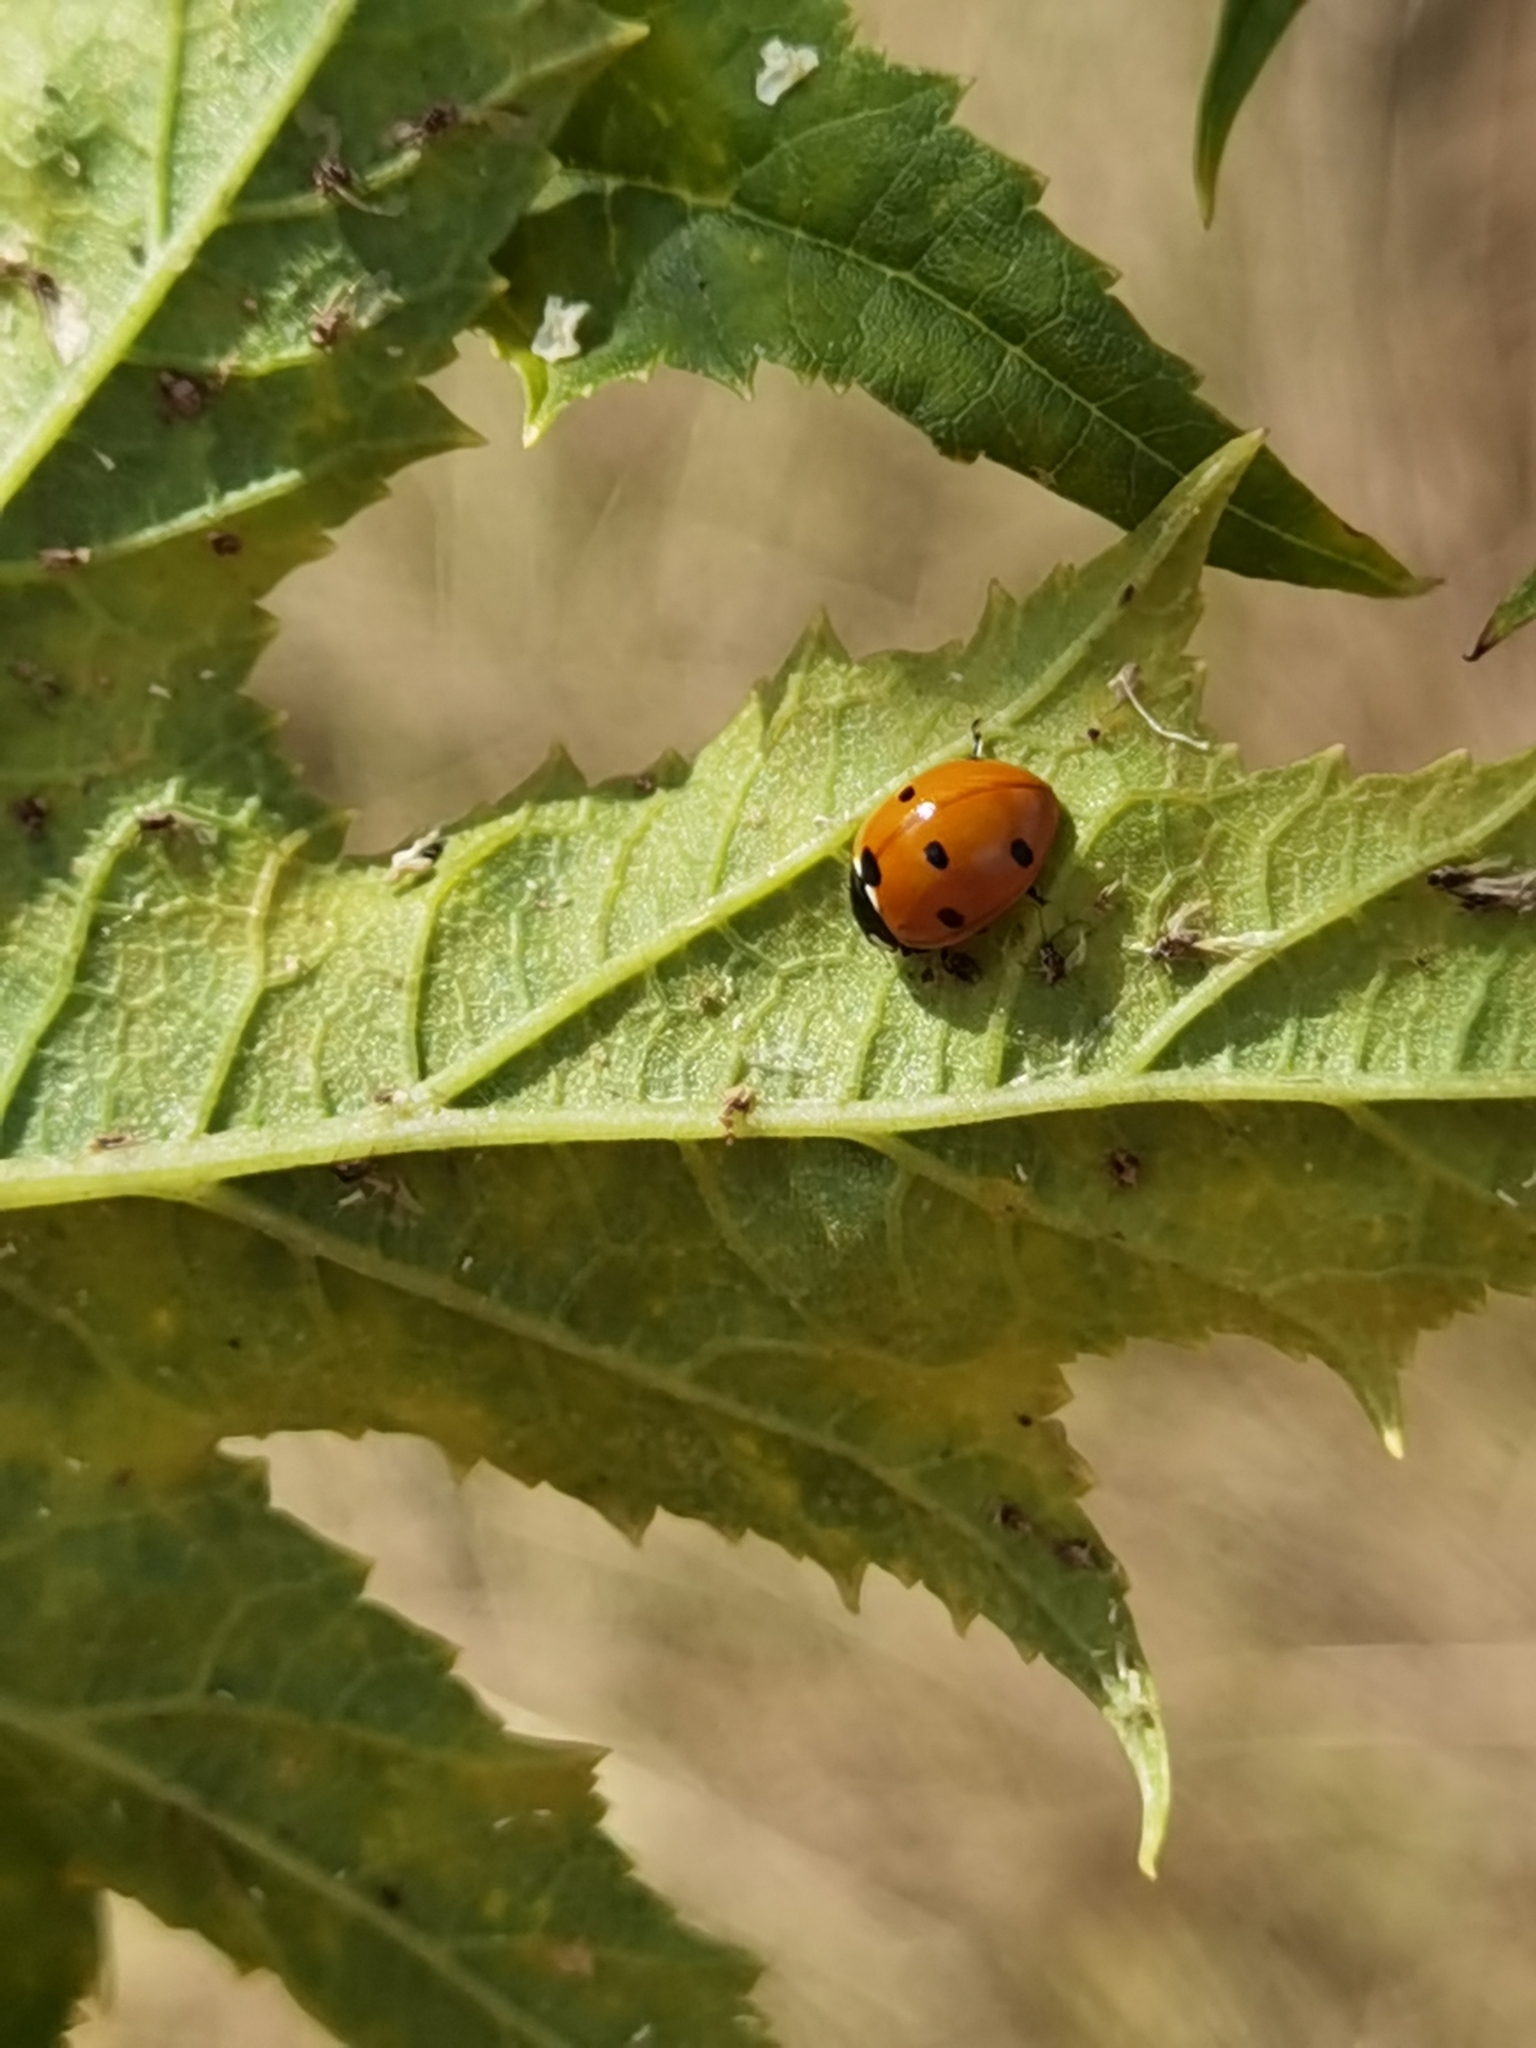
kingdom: Animalia
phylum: Arthropoda
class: Insecta
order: Coleoptera
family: Coccinellidae
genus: Coccinella
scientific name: Coccinella septempunctata
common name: Sevenspotted lady beetle
